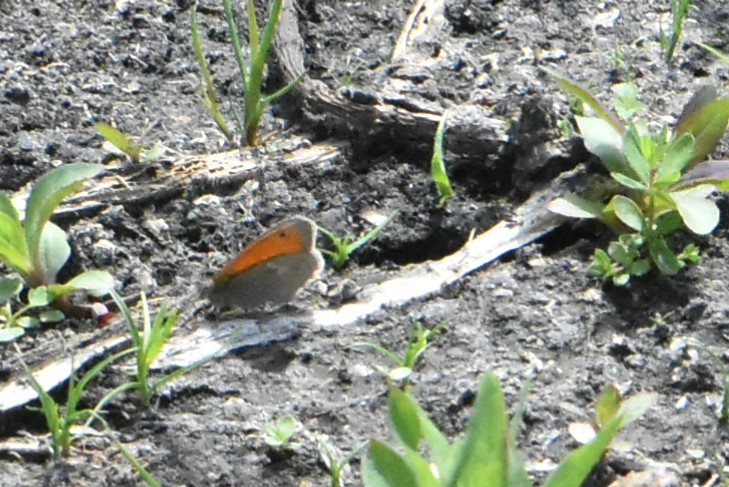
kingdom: Animalia
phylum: Arthropoda
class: Insecta
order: Lepidoptera
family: Nymphalidae
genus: Coenonympha
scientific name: Coenonympha pamphilus
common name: Small heath
